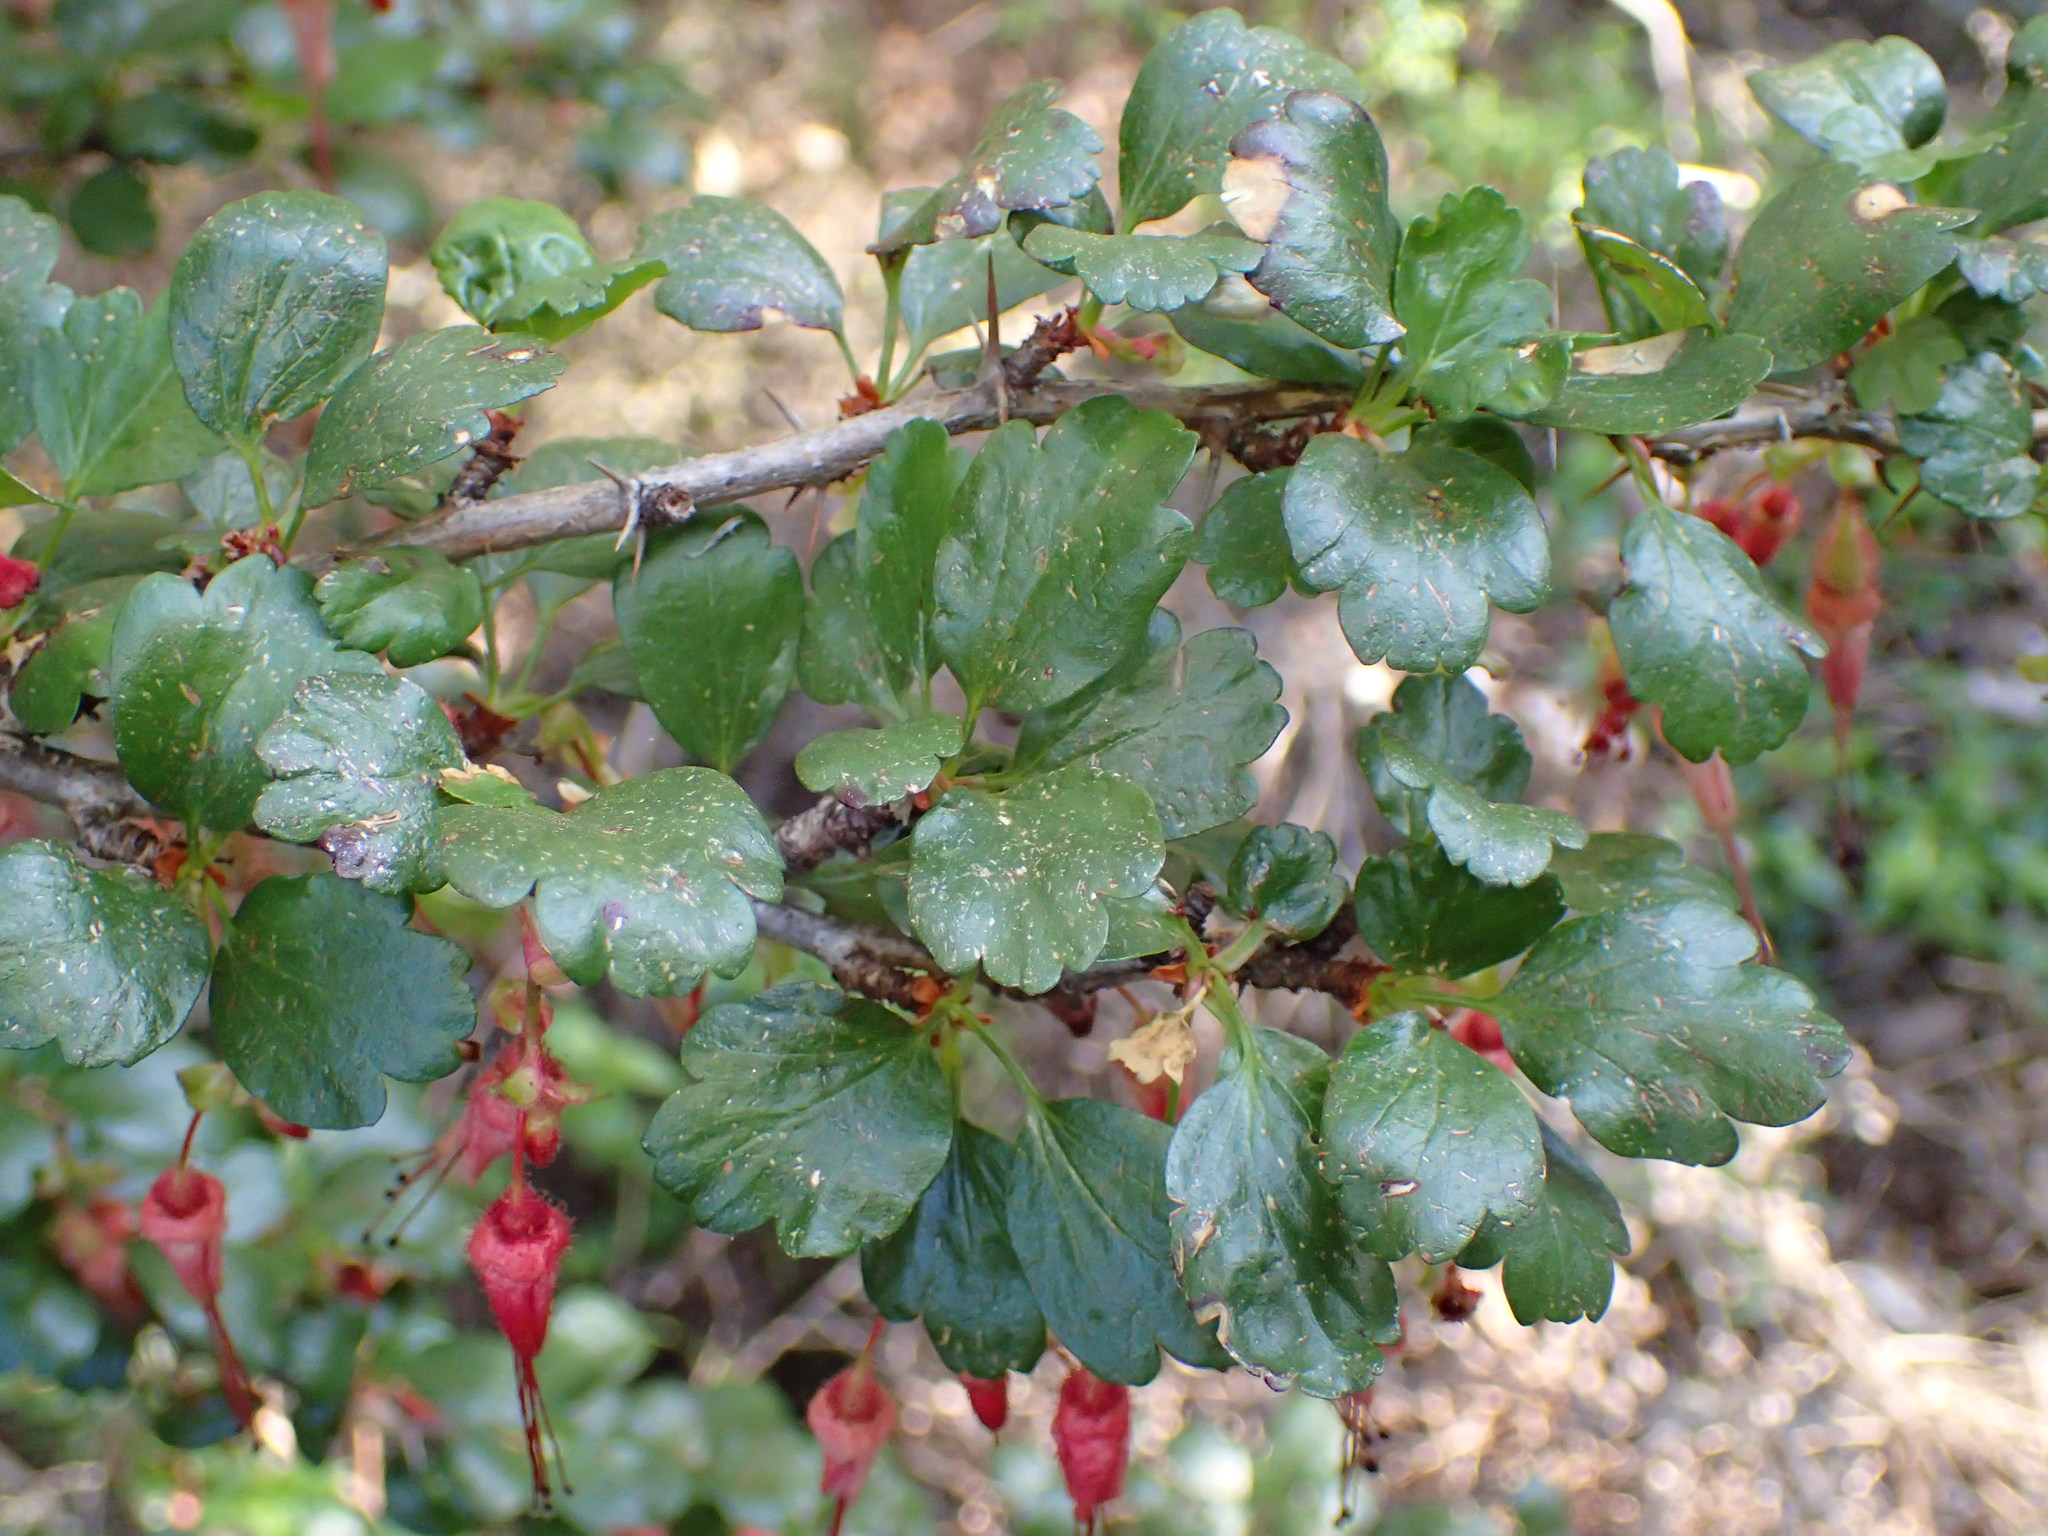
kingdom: Plantae
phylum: Tracheophyta
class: Magnoliopsida
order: Saxifragales
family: Grossulariaceae
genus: Ribes
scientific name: Ribes speciosum
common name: Fuchsia-flower gooseberry
